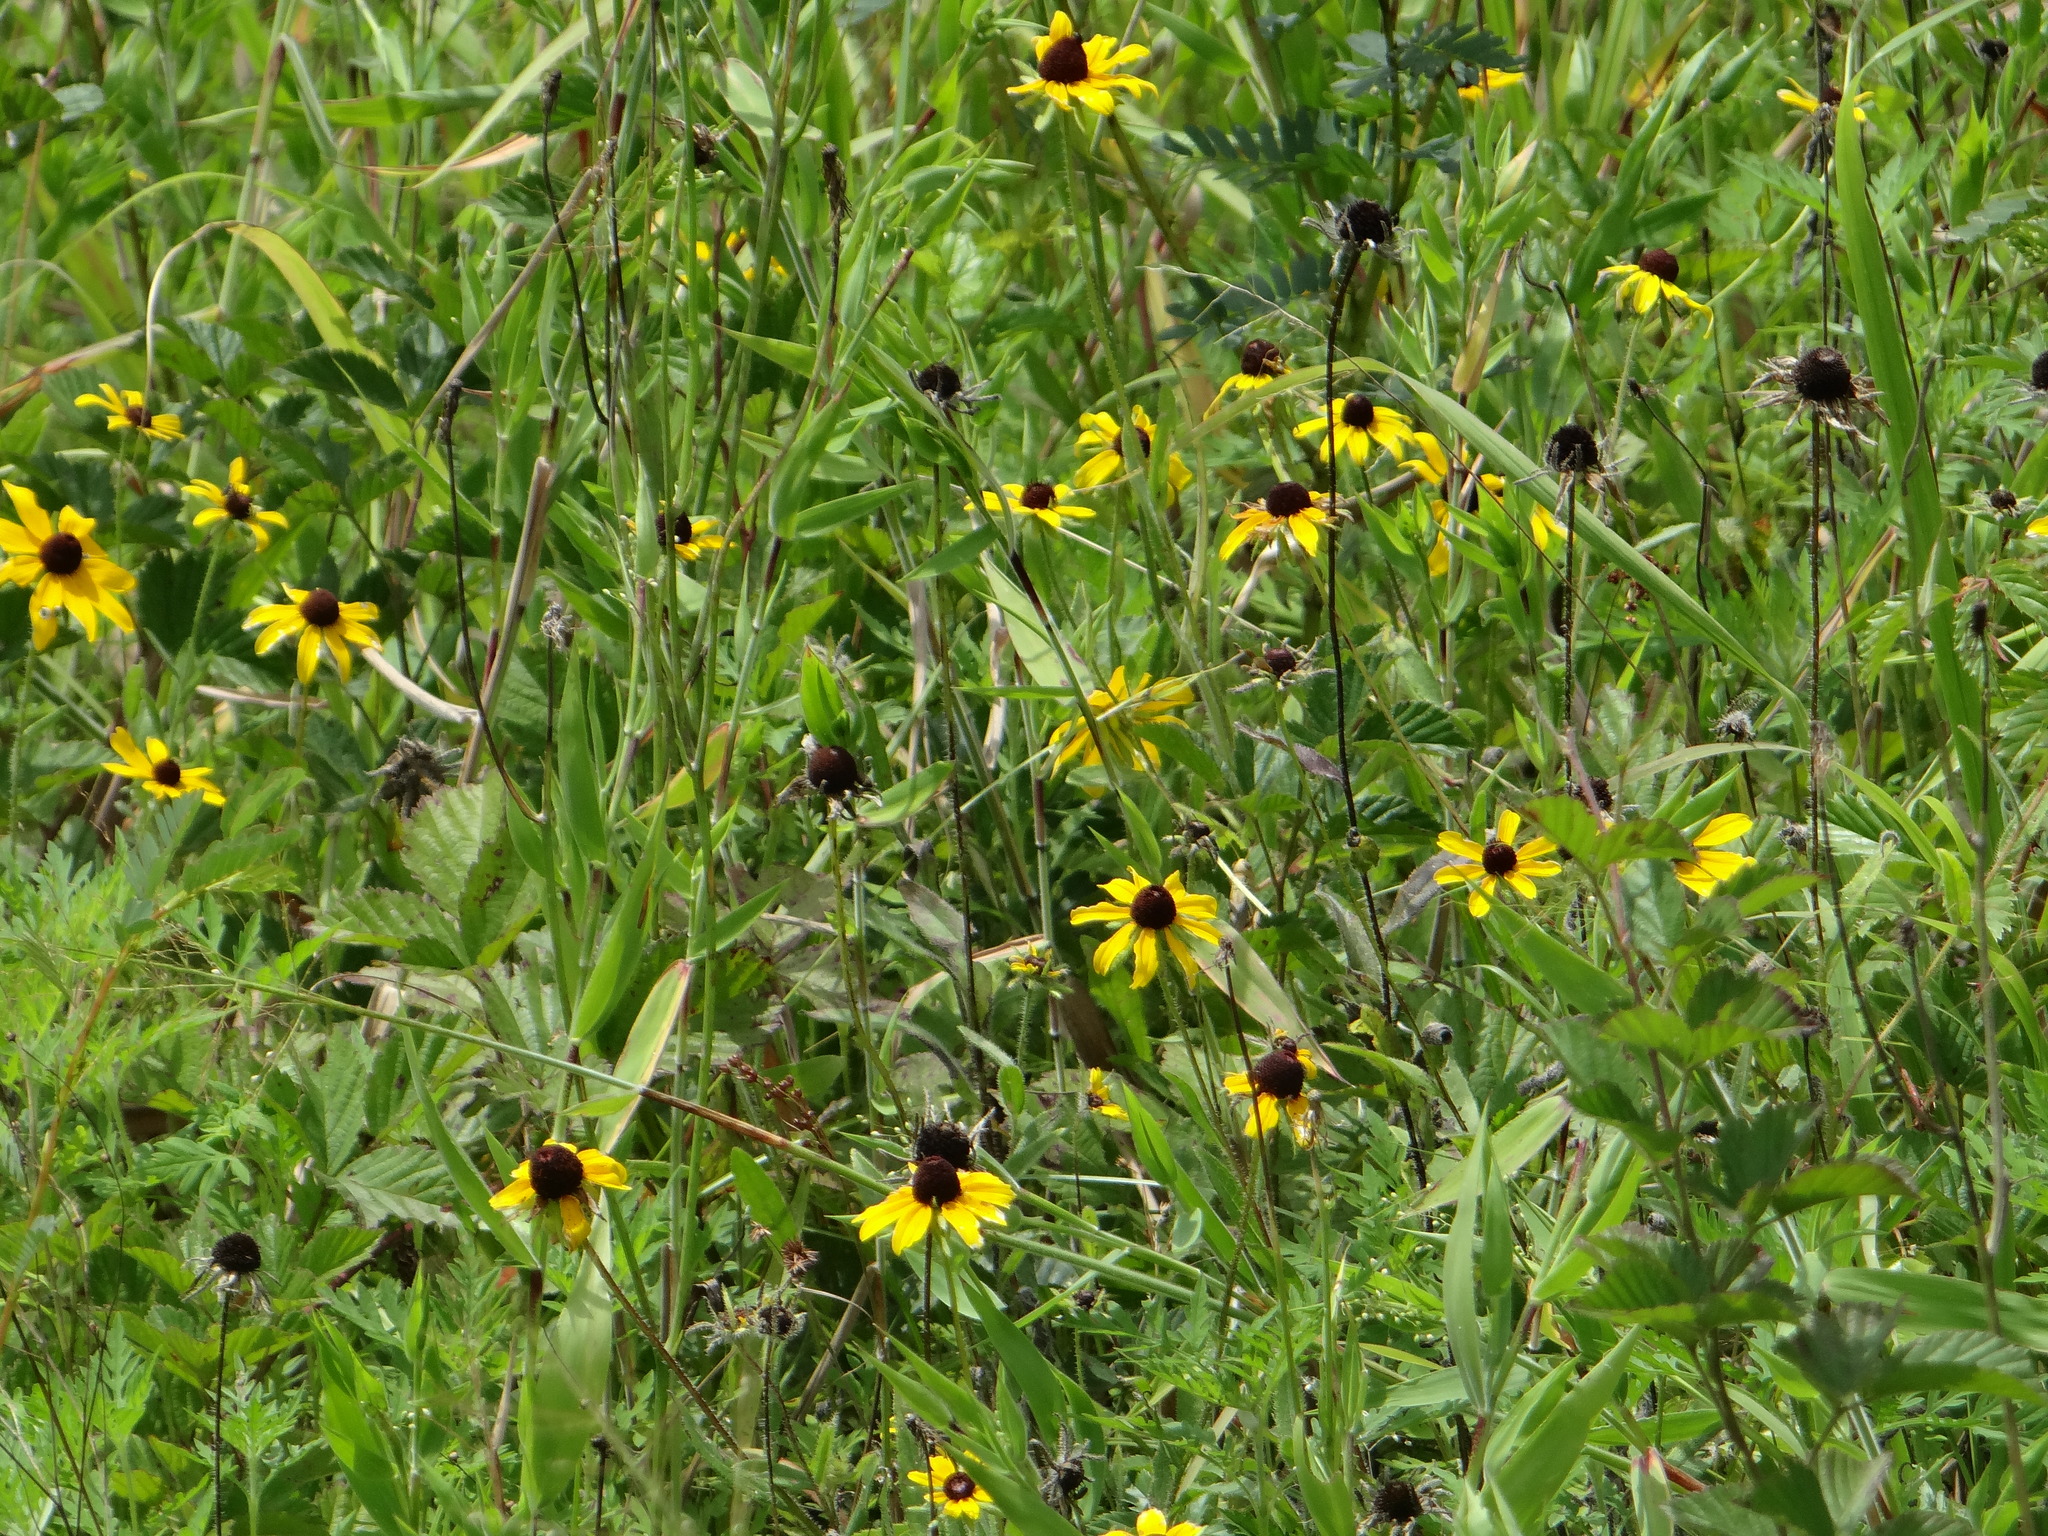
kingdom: Plantae
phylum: Tracheophyta
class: Magnoliopsida
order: Asterales
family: Asteraceae
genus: Rudbeckia
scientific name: Rudbeckia hirta
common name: Black-eyed-susan
